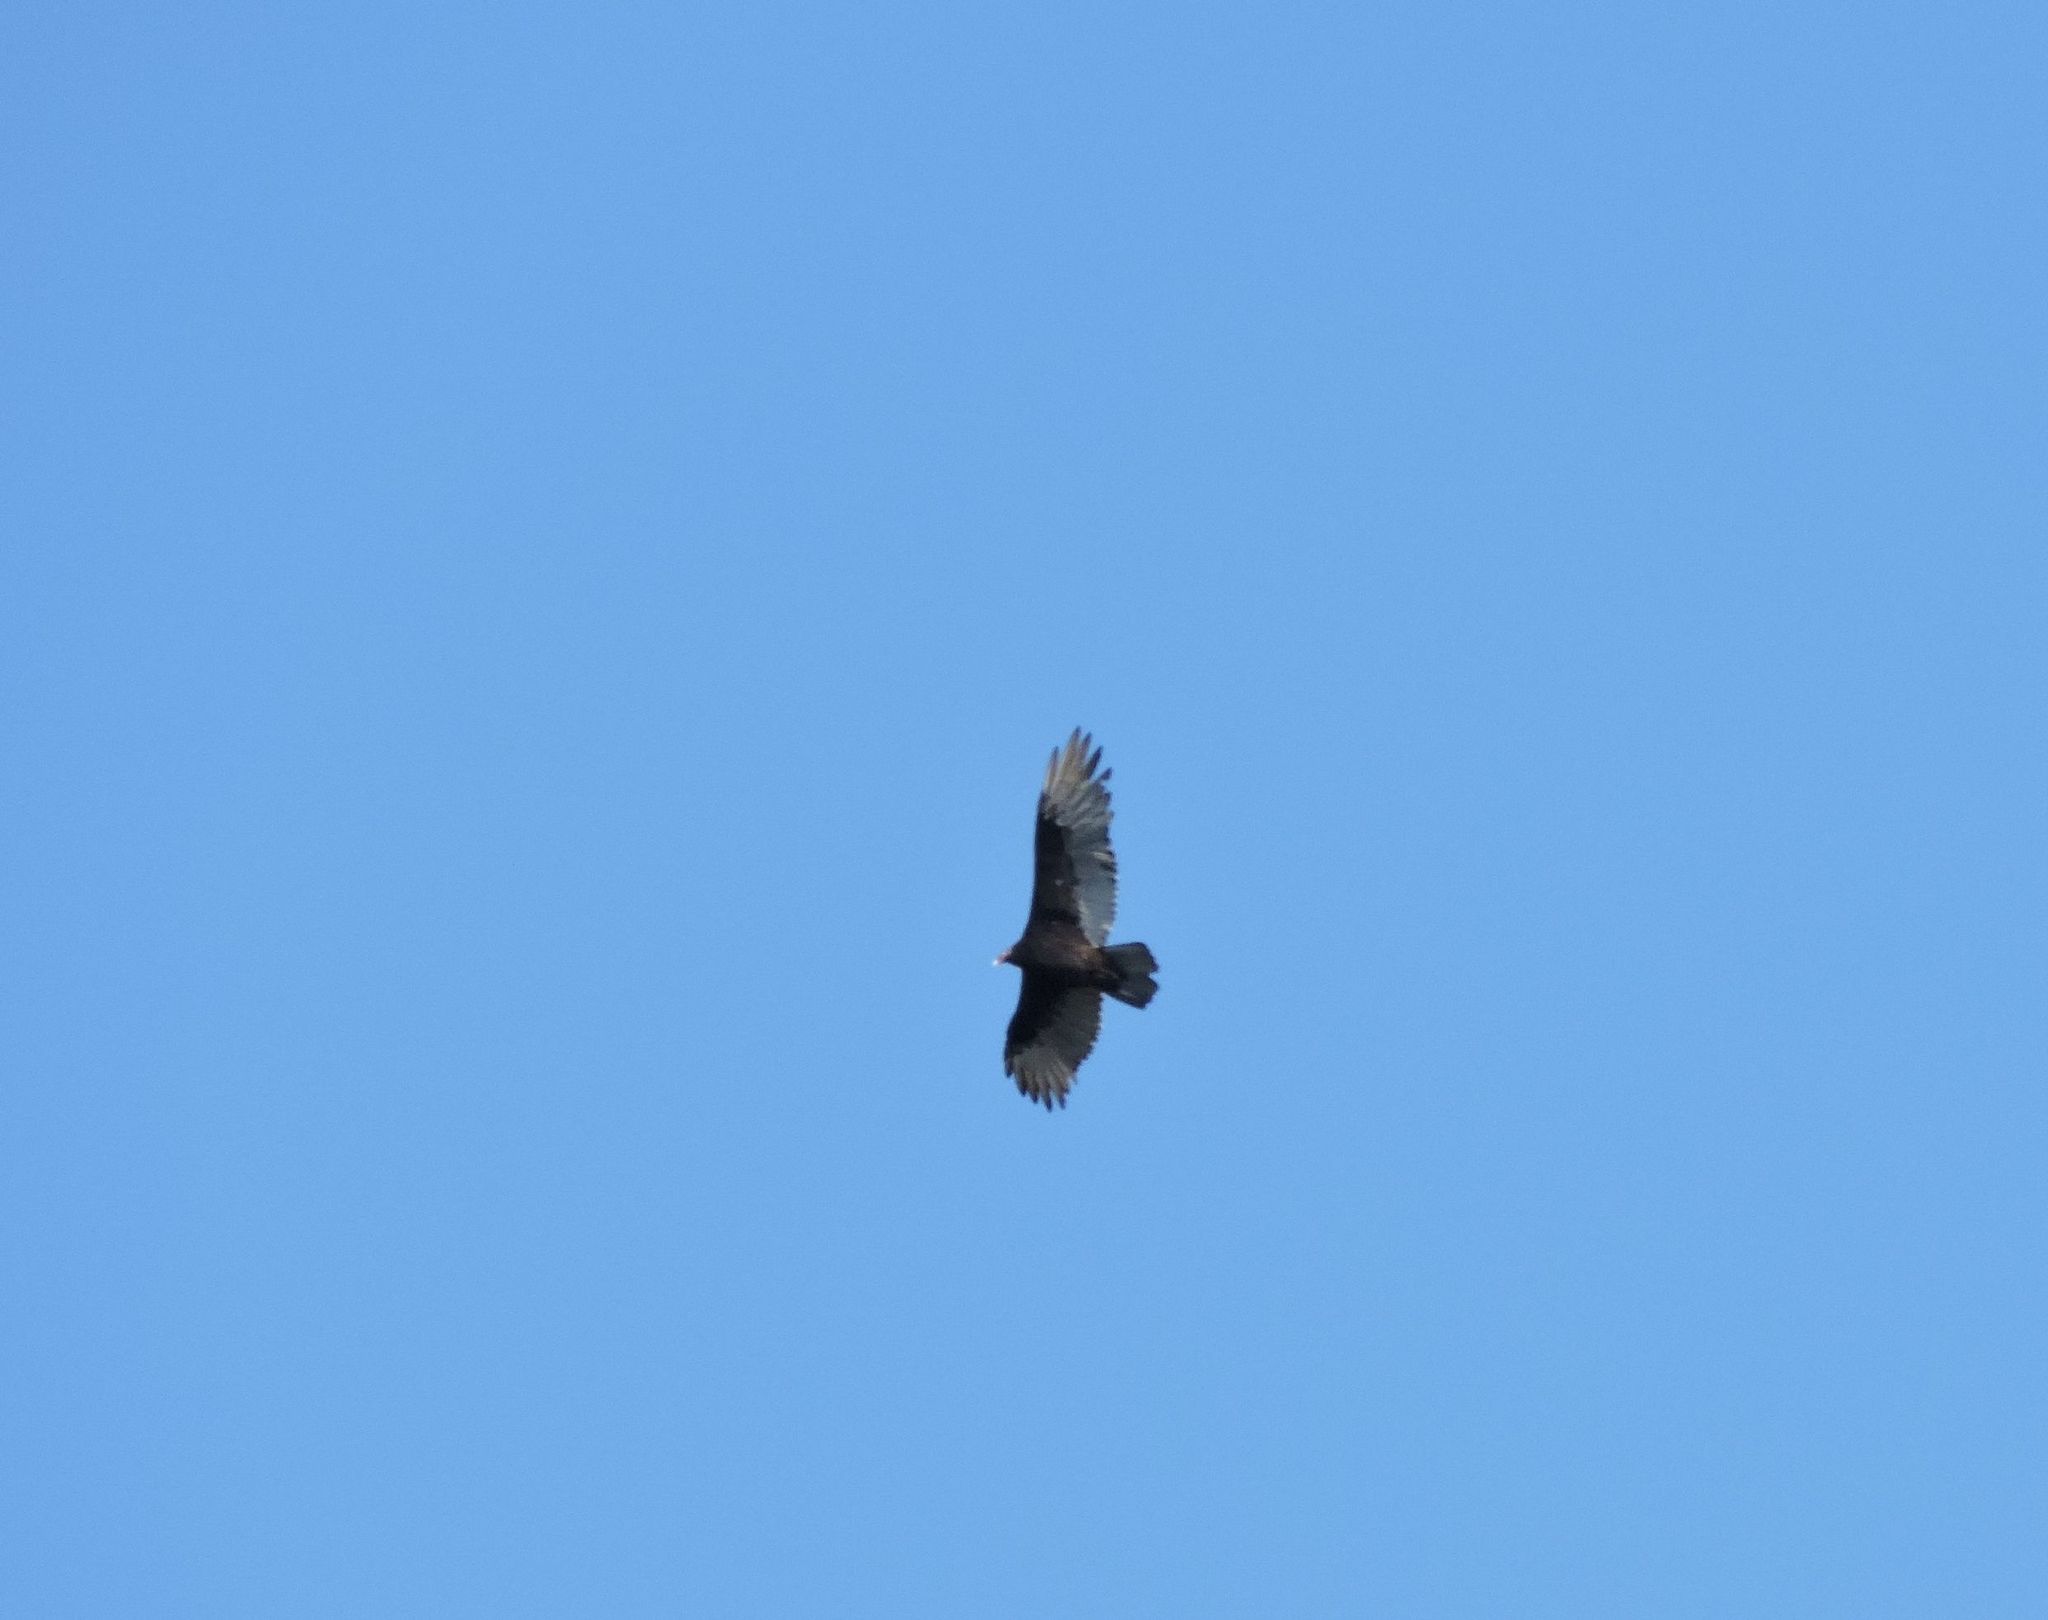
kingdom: Animalia
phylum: Chordata
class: Aves
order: Accipitriformes
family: Cathartidae
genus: Cathartes
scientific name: Cathartes aura
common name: Turkey vulture
